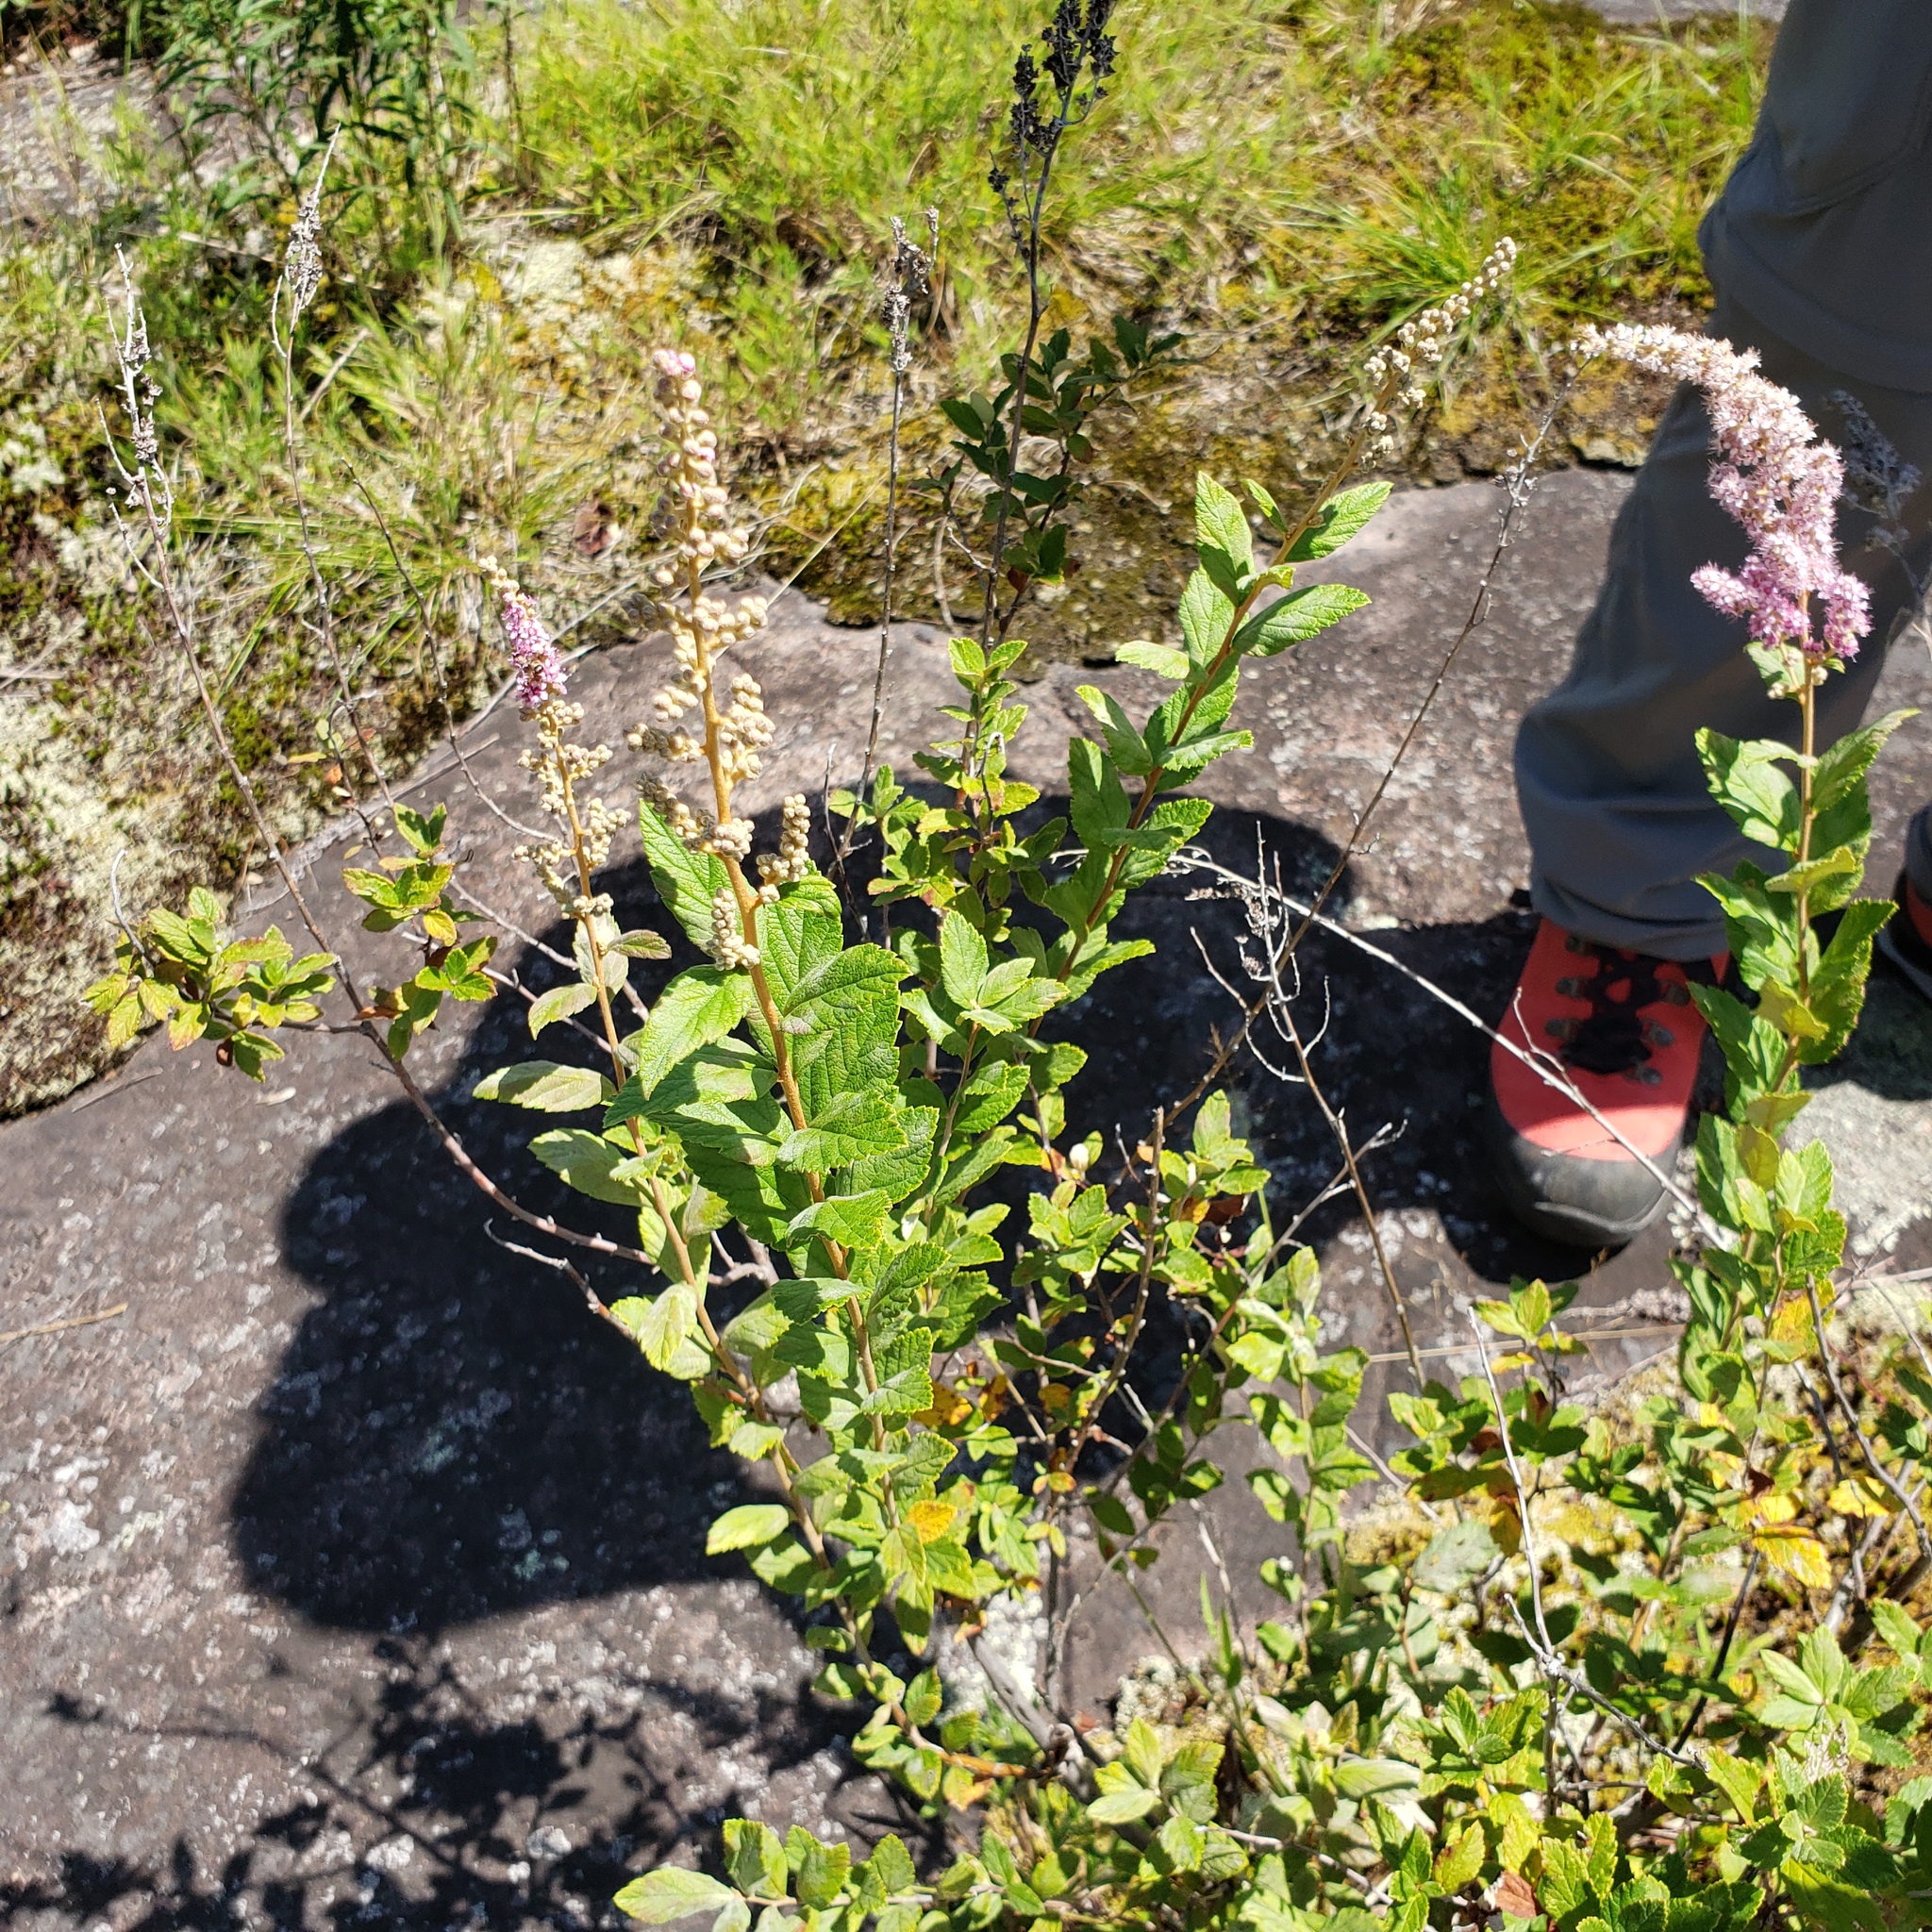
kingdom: Plantae
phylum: Tracheophyta
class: Magnoliopsida
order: Rosales
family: Rosaceae
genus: Spiraea
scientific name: Spiraea tomentosa
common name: Hardhack
